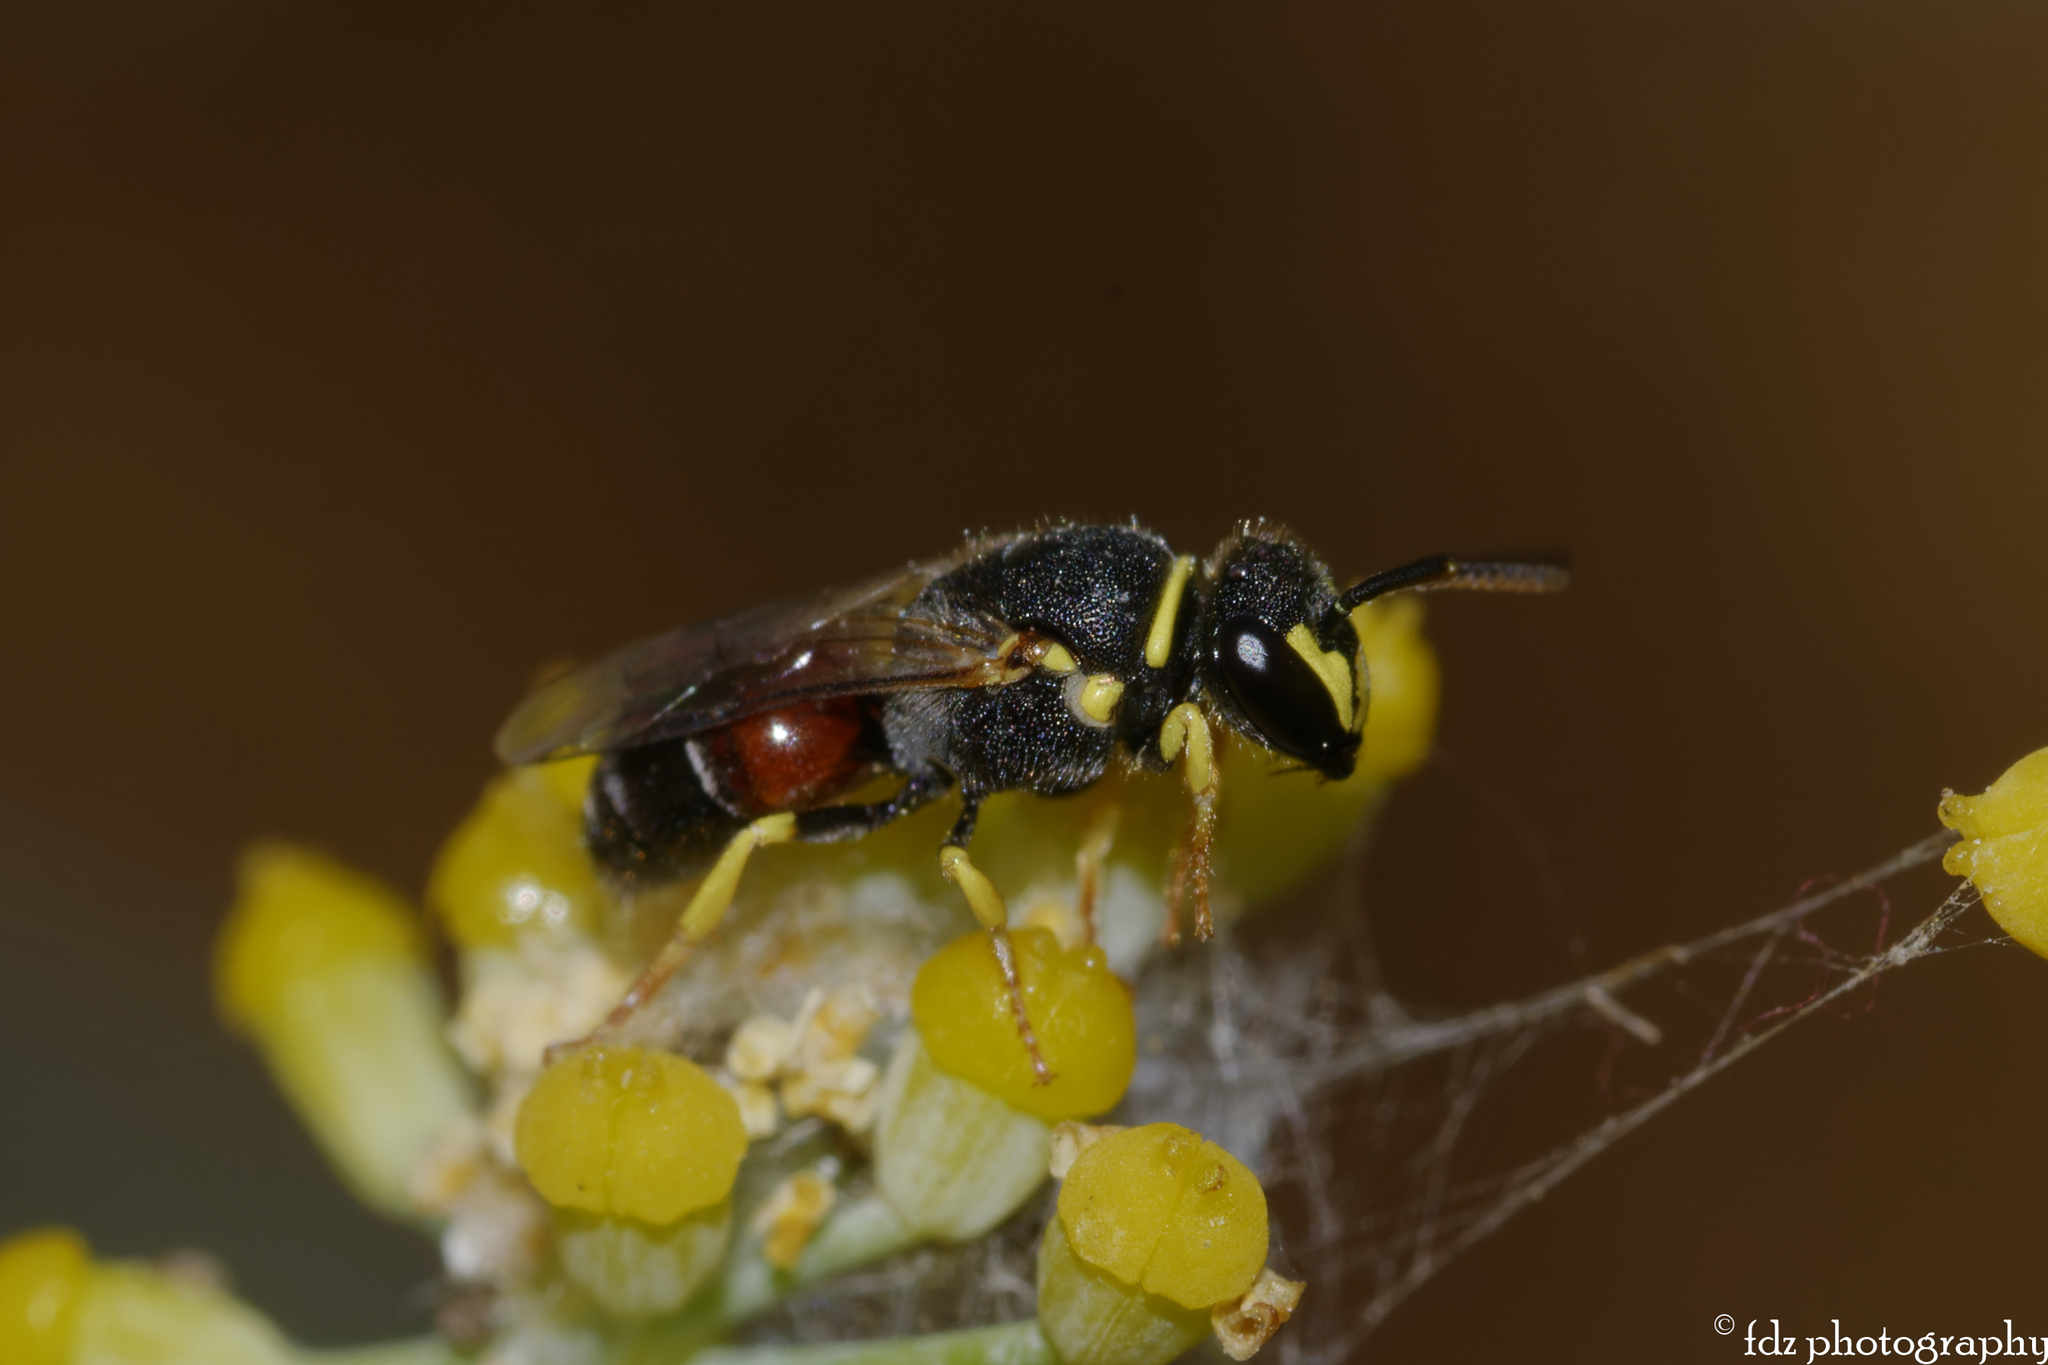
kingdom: Animalia
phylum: Arthropoda
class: Insecta
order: Hymenoptera
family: Colletidae
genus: Hylaeus
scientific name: Hylaeus sulphuripes
